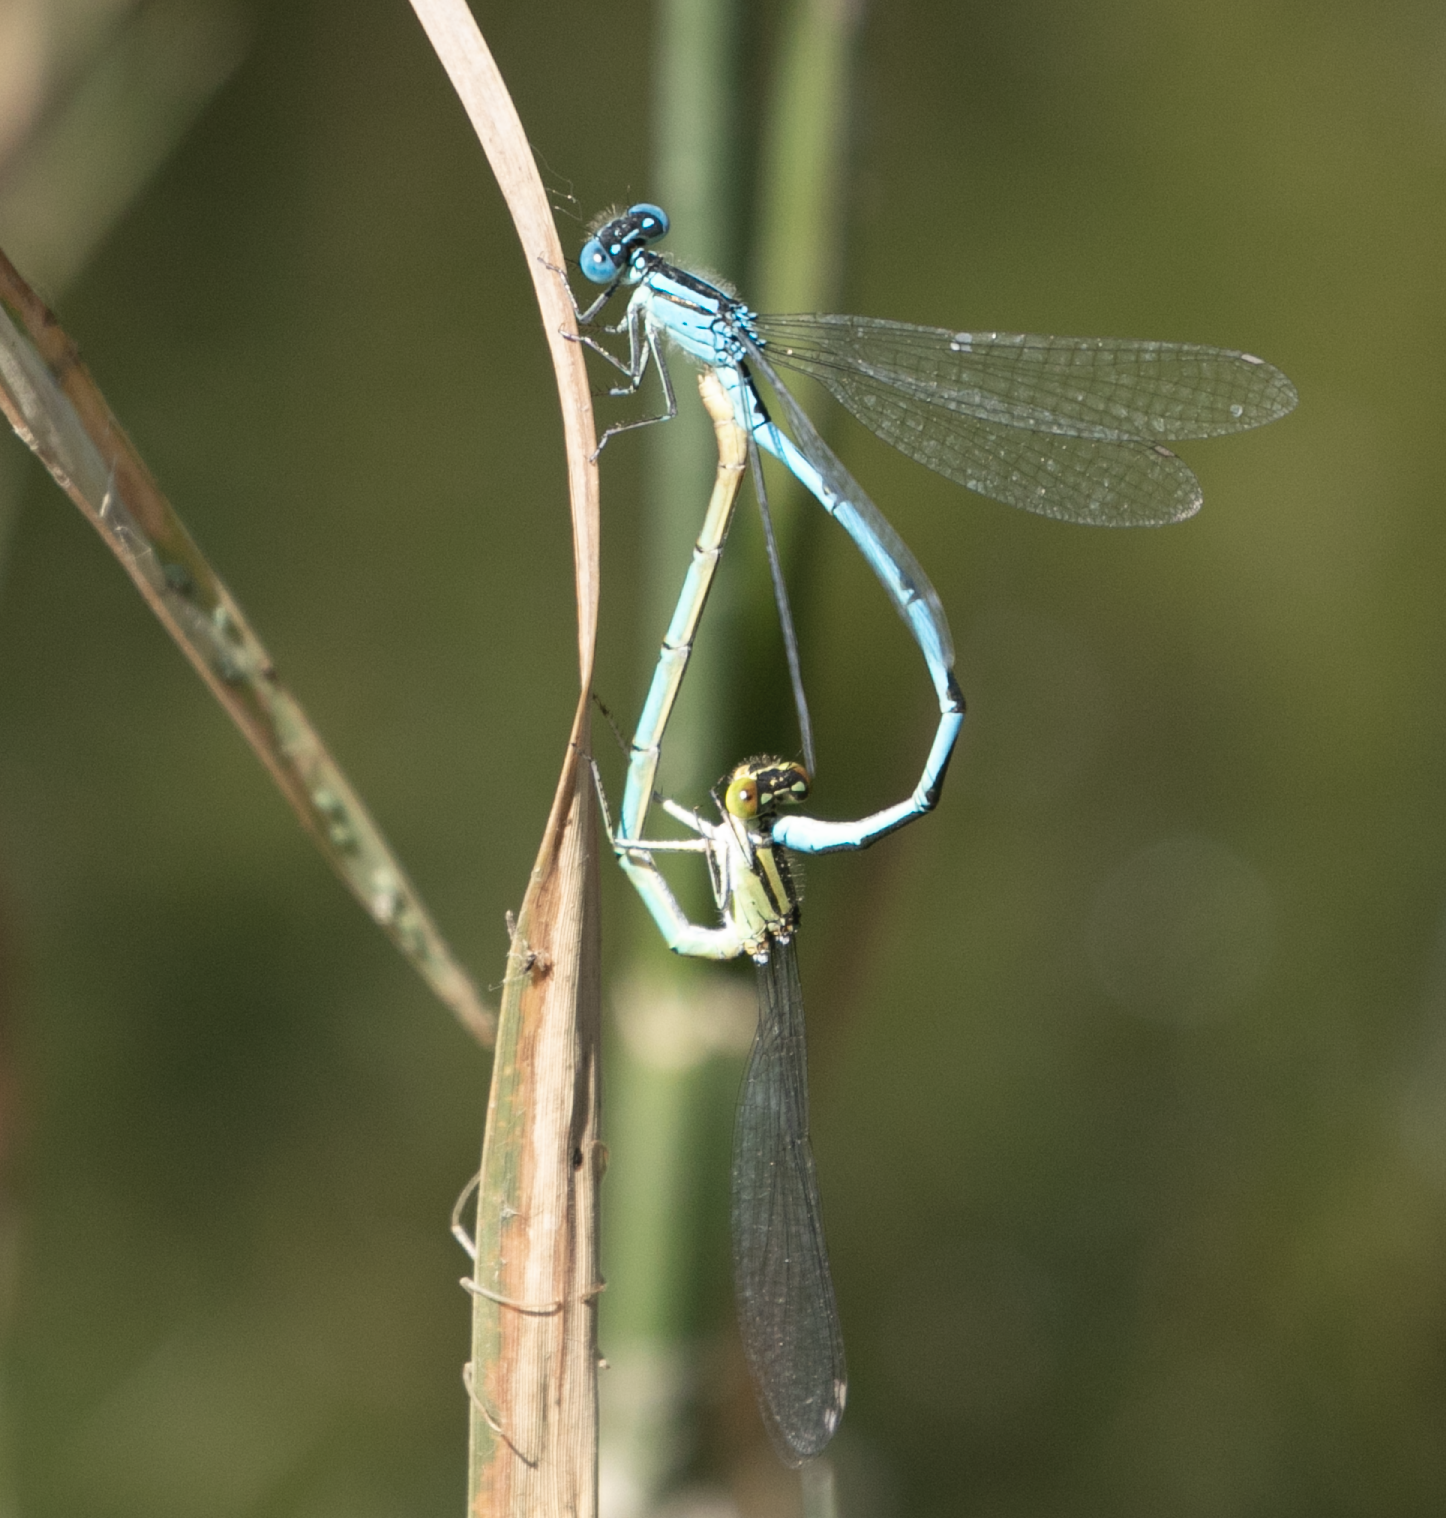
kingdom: Animalia
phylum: Arthropoda
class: Insecta
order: Odonata
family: Coenagrionidae
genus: Erythromma
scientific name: Erythromma lindenii
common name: Blue-eye
